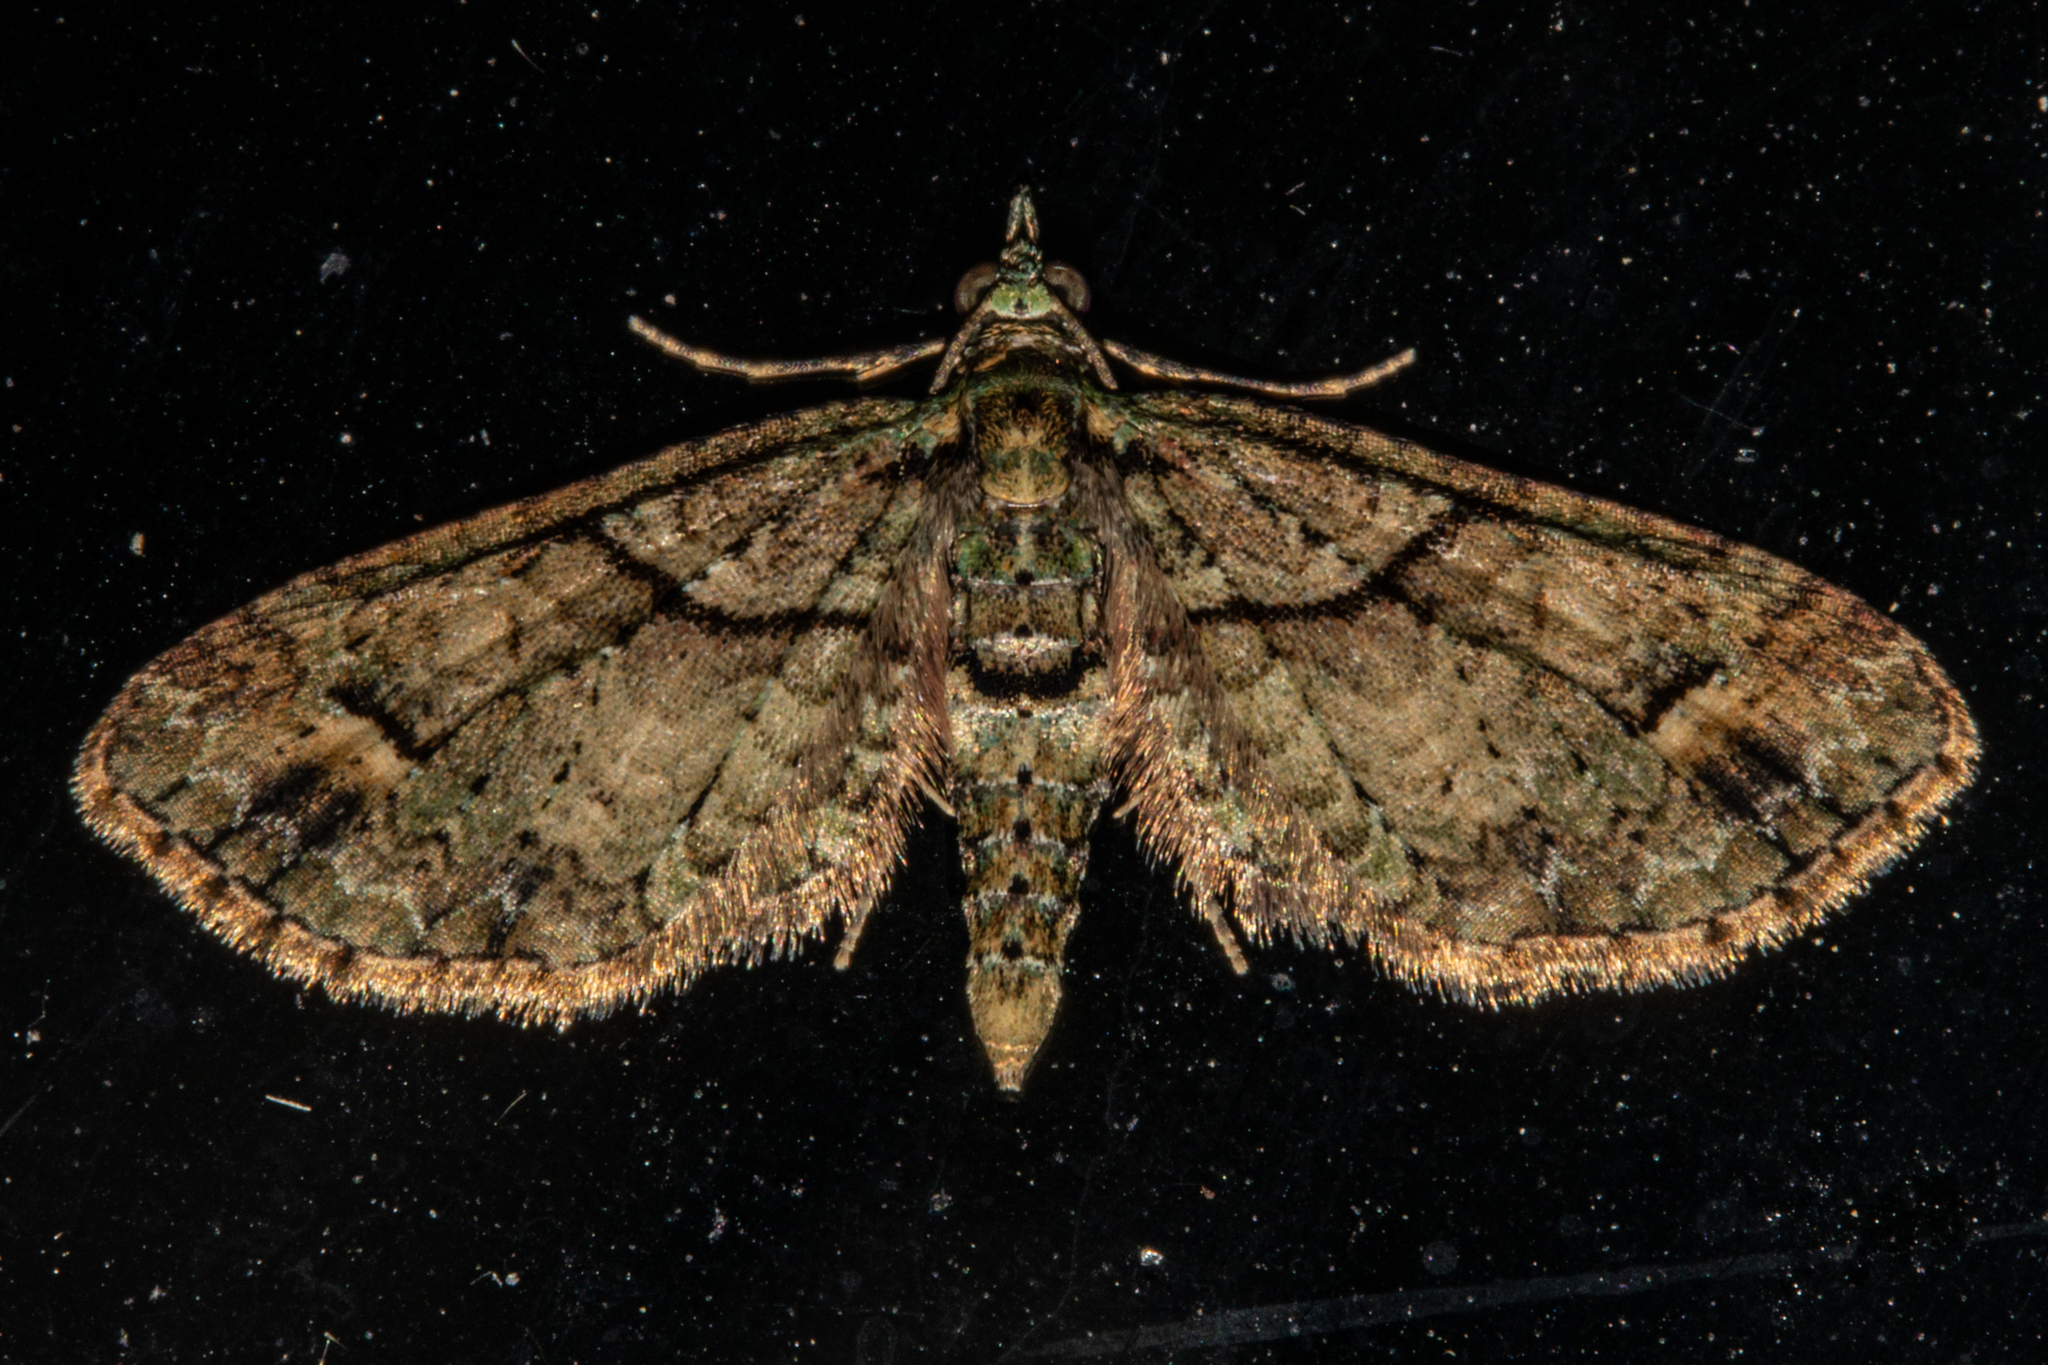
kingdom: Animalia
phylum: Arthropoda
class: Insecta
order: Lepidoptera
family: Geometridae
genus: Idaea
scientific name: Idaea mutanda
